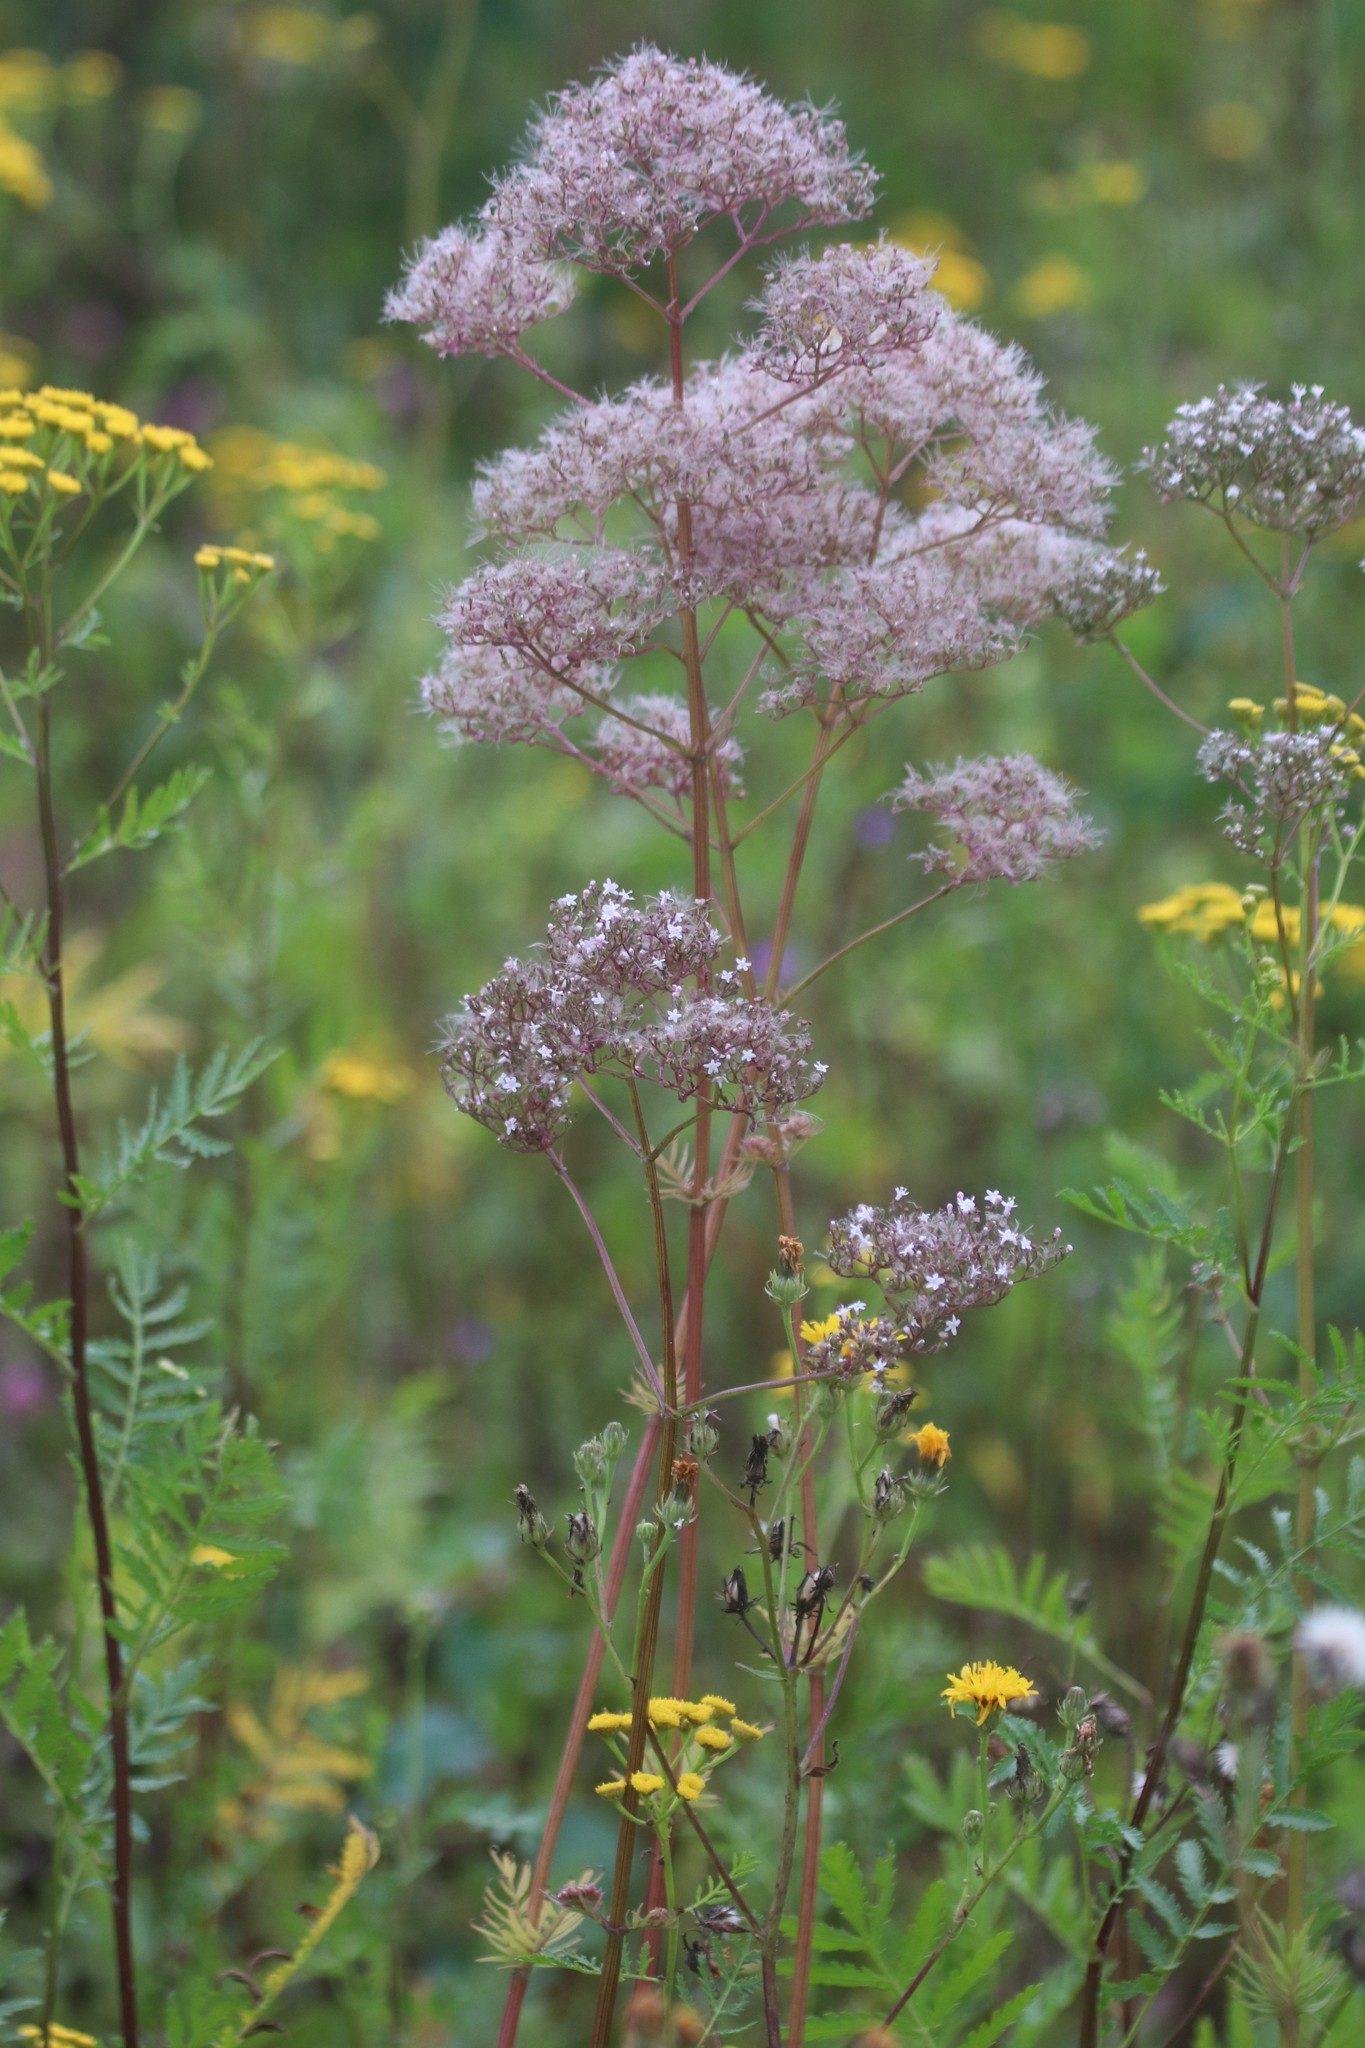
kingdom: Plantae
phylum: Tracheophyta
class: Magnoliopsida
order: Dipsacales
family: Caprifoliaceae
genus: Valeriana
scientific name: Valeriana officinalis
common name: Common valerian
